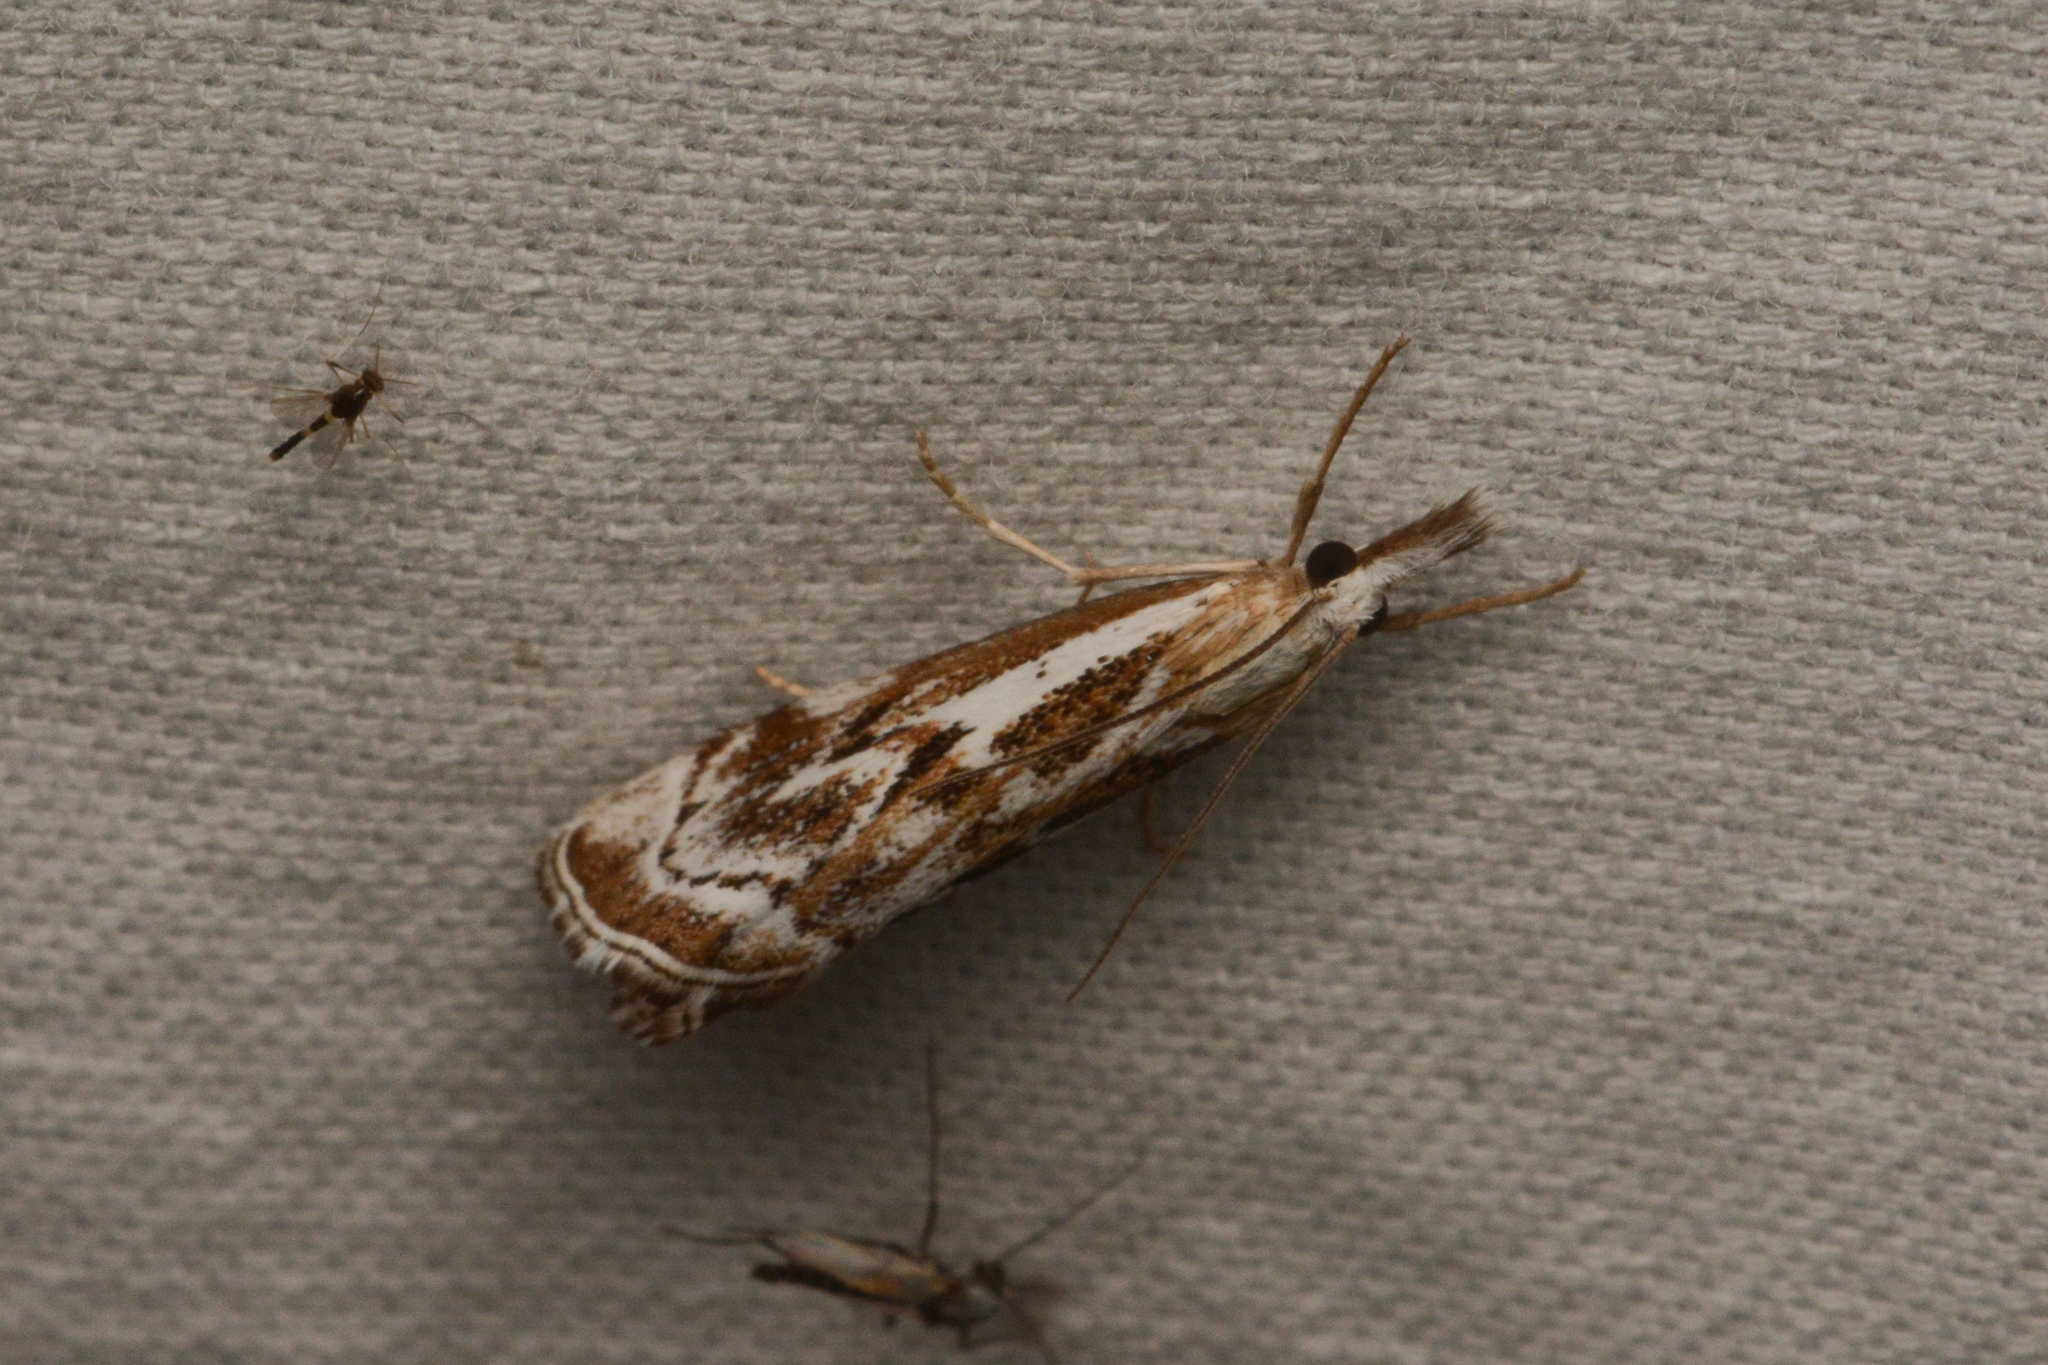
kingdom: Animalia
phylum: Arthropoda
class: Insecta
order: Lepidoptera
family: Crambidae
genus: Catoptria
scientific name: Catoptria oregonicus
